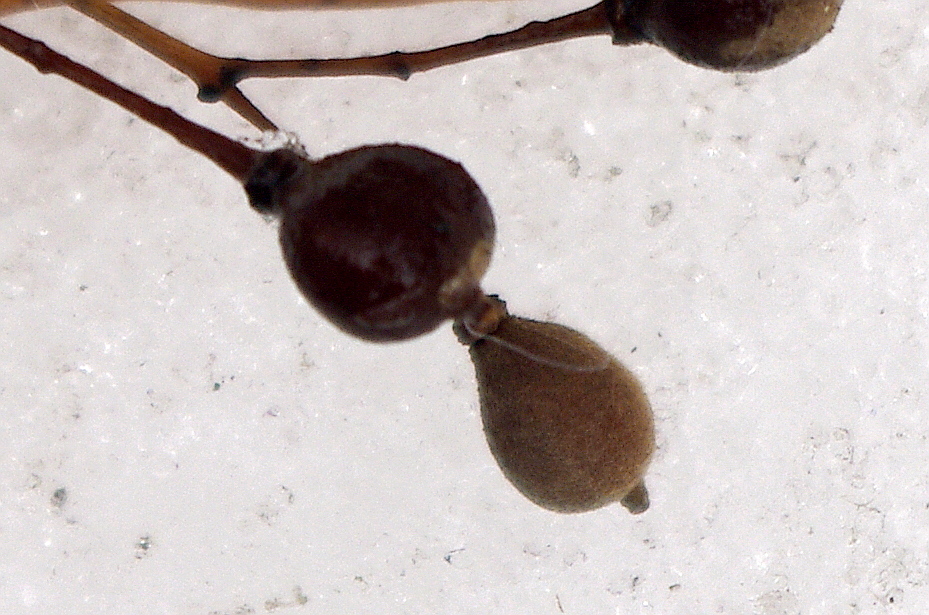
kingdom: Plantae
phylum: Tracheophyta
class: Magnoliopsida
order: Malvales
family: Malvaceae
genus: Tilia
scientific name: Tilia cordata
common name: Small-leaved lime
